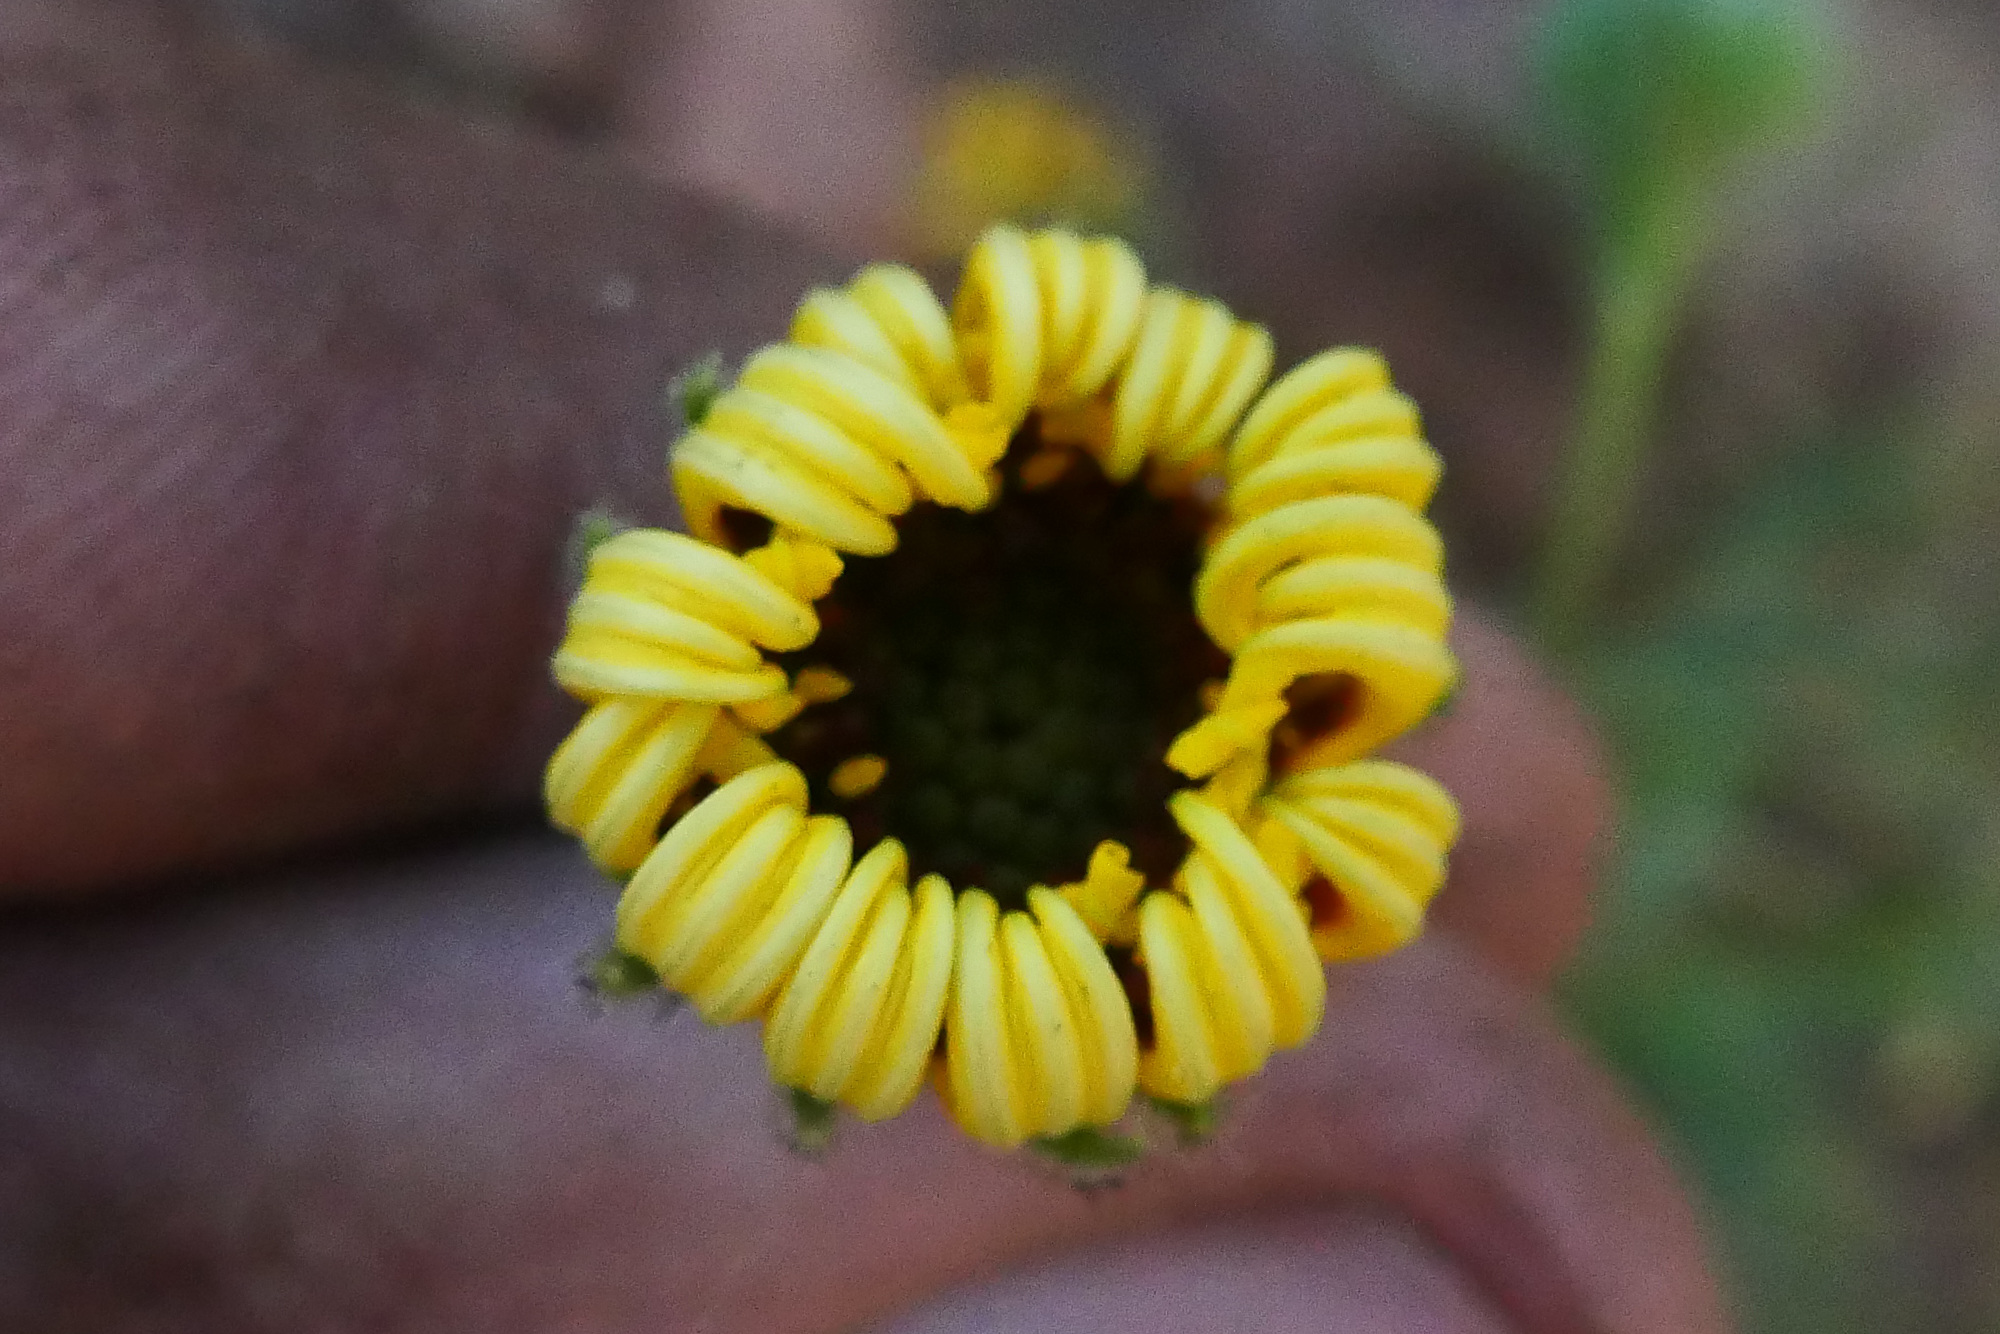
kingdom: Plantae
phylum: Tracheophyta
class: Magnoliopsida
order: Asterales
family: Asteraceae
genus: Madia
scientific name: Madia elegans
